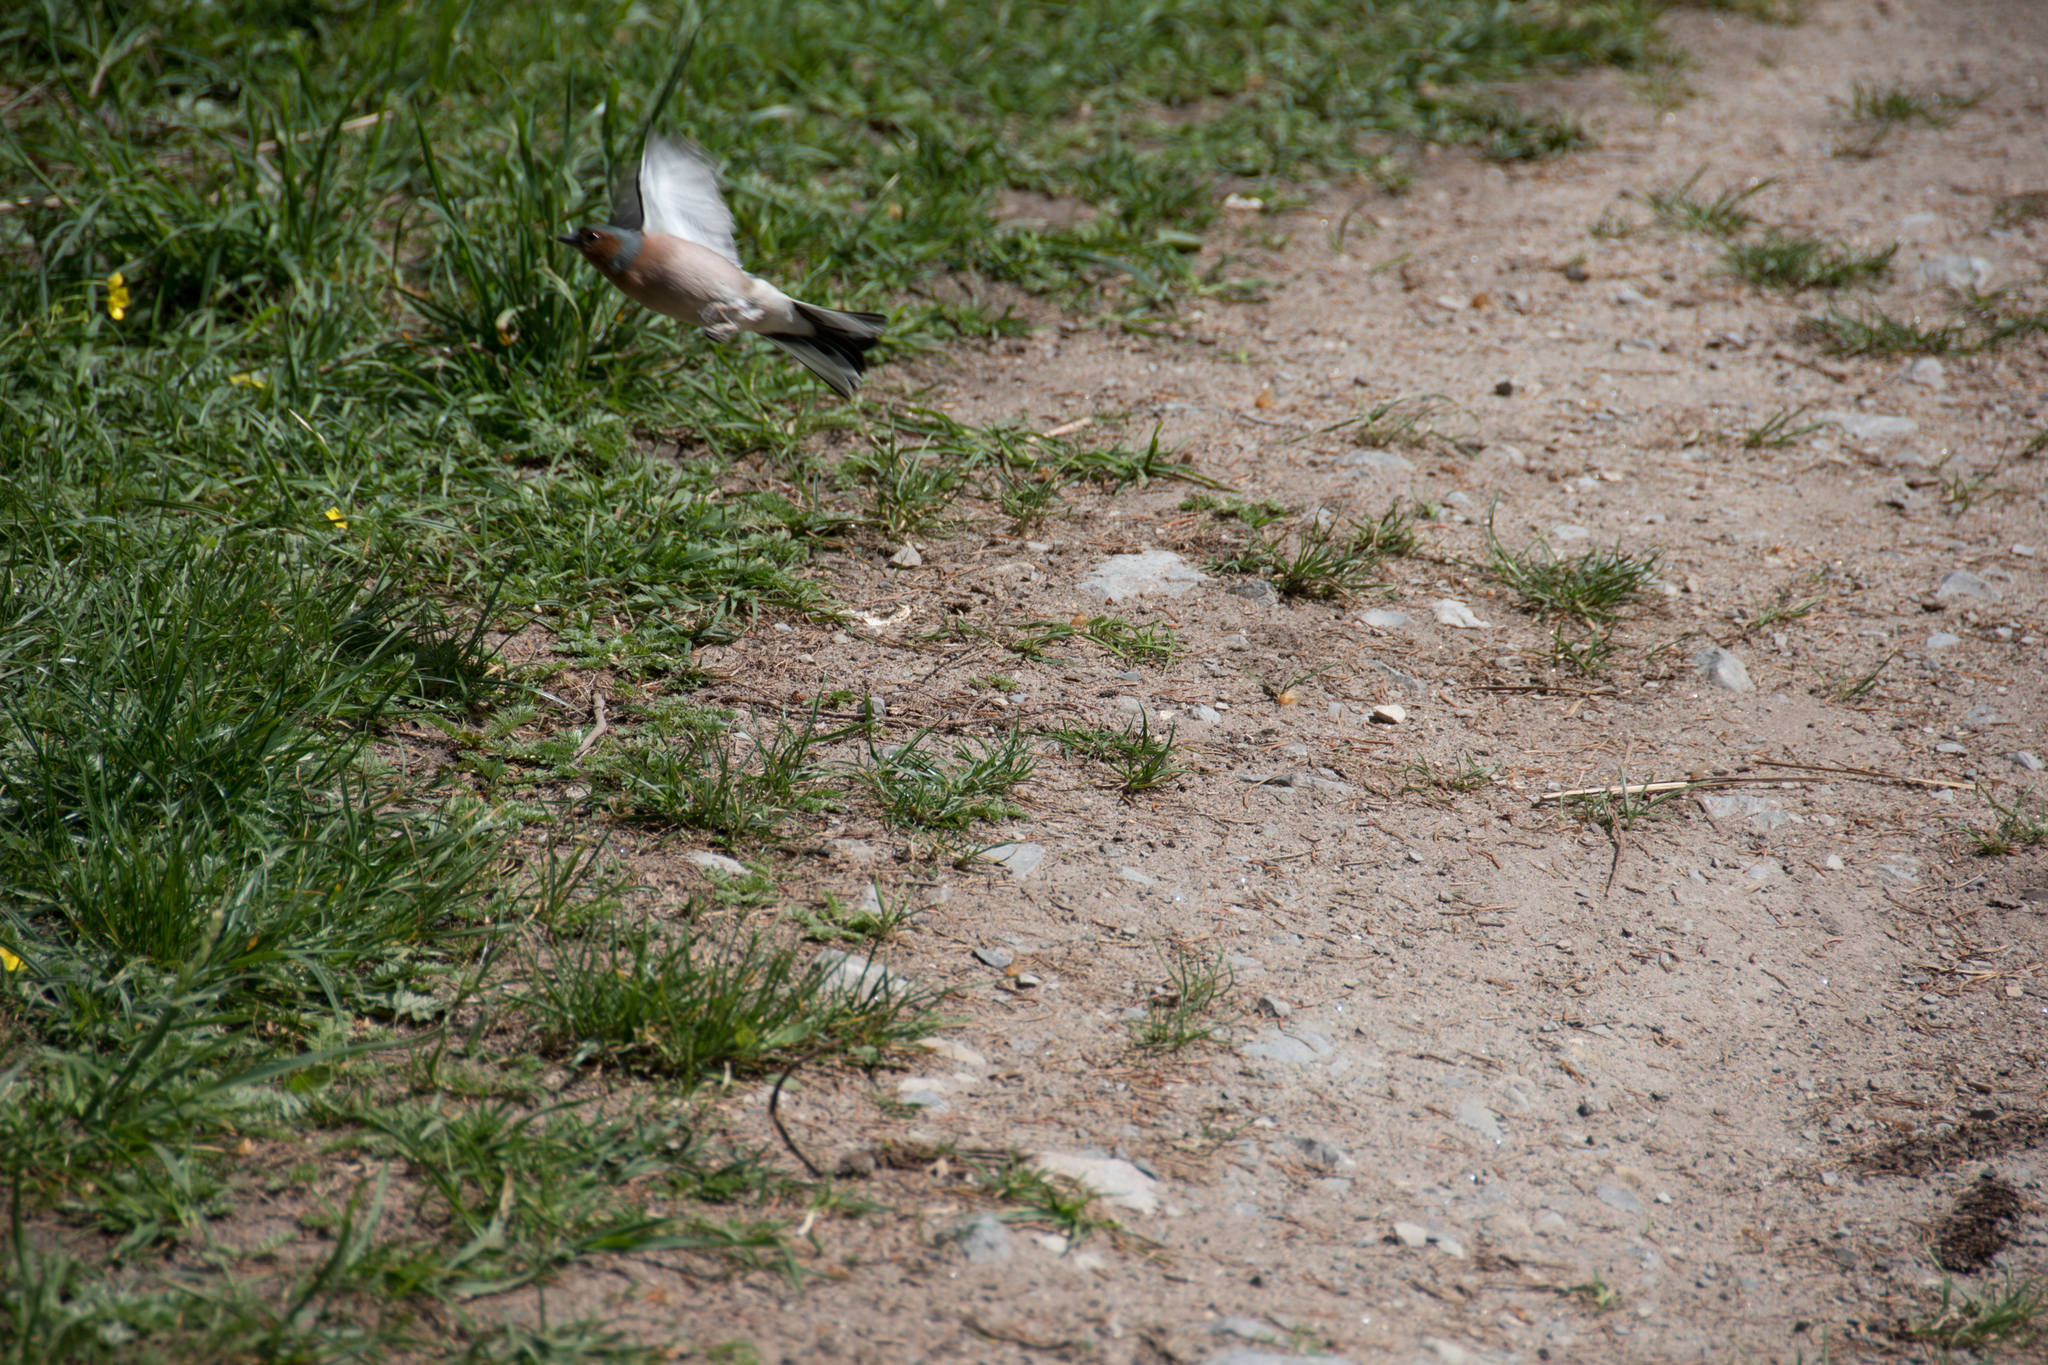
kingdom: Animalia
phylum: Chordata
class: Aves
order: Passeriformes
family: Fringillidae
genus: Fringilla
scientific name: Fringilla coelebs
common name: Common chaffinch
